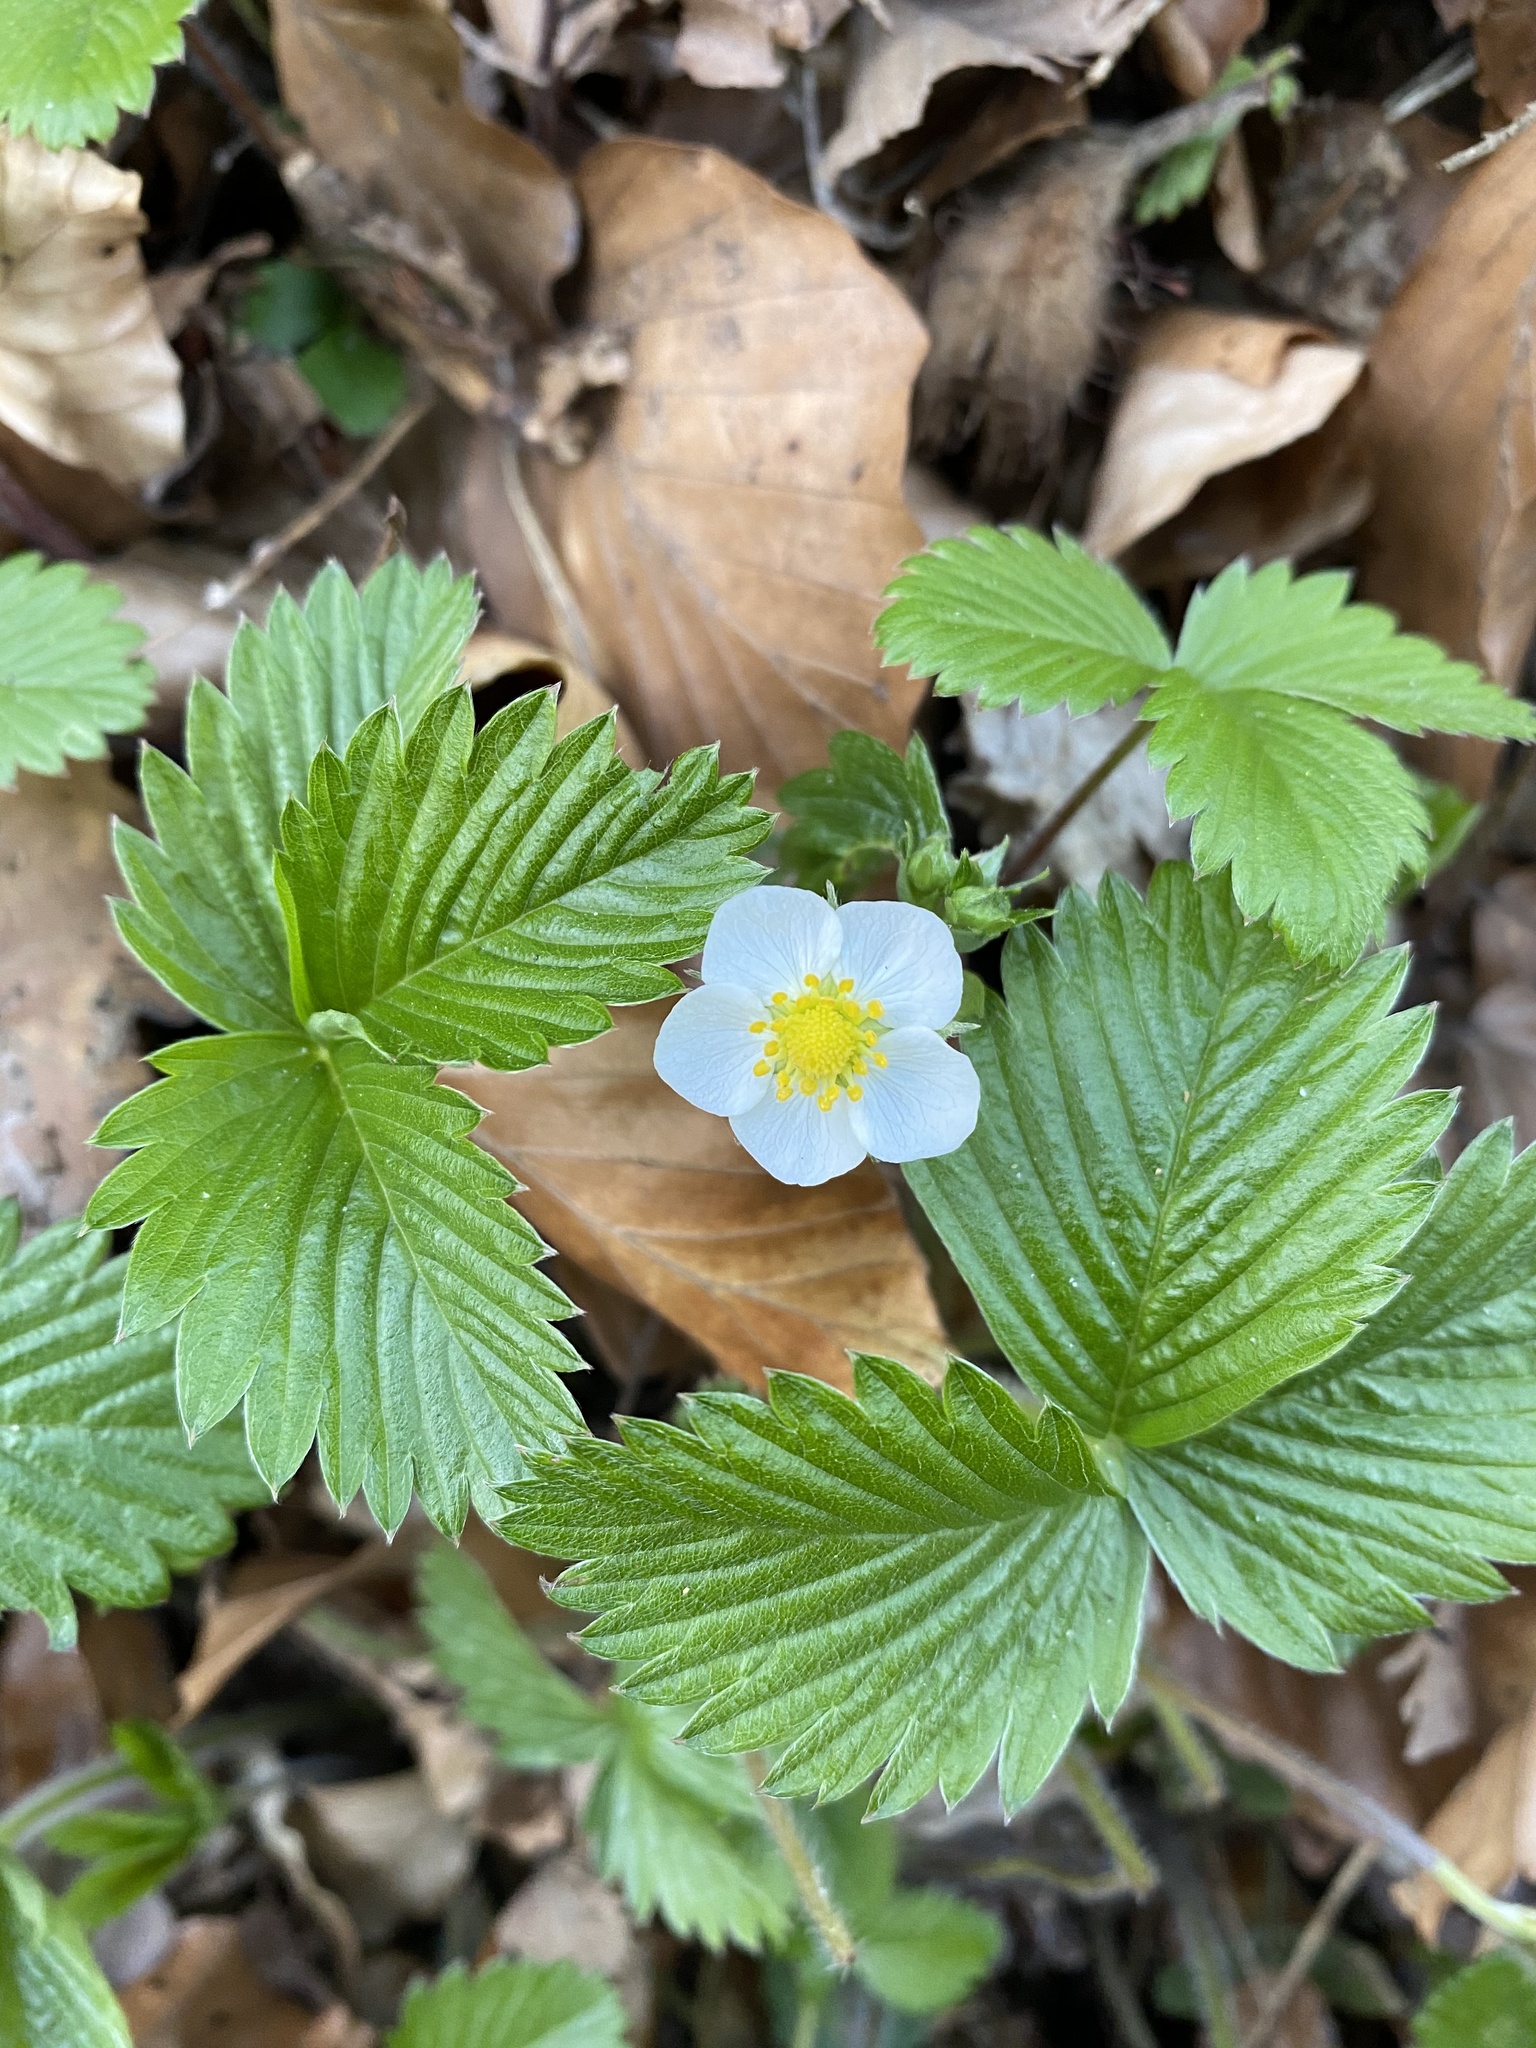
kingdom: Plantae
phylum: Tracheophyta
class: Magnoliopsida
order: Rosales
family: Rosaceae
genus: Fragaria
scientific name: Fragaria vesca
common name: Wild strawberry
